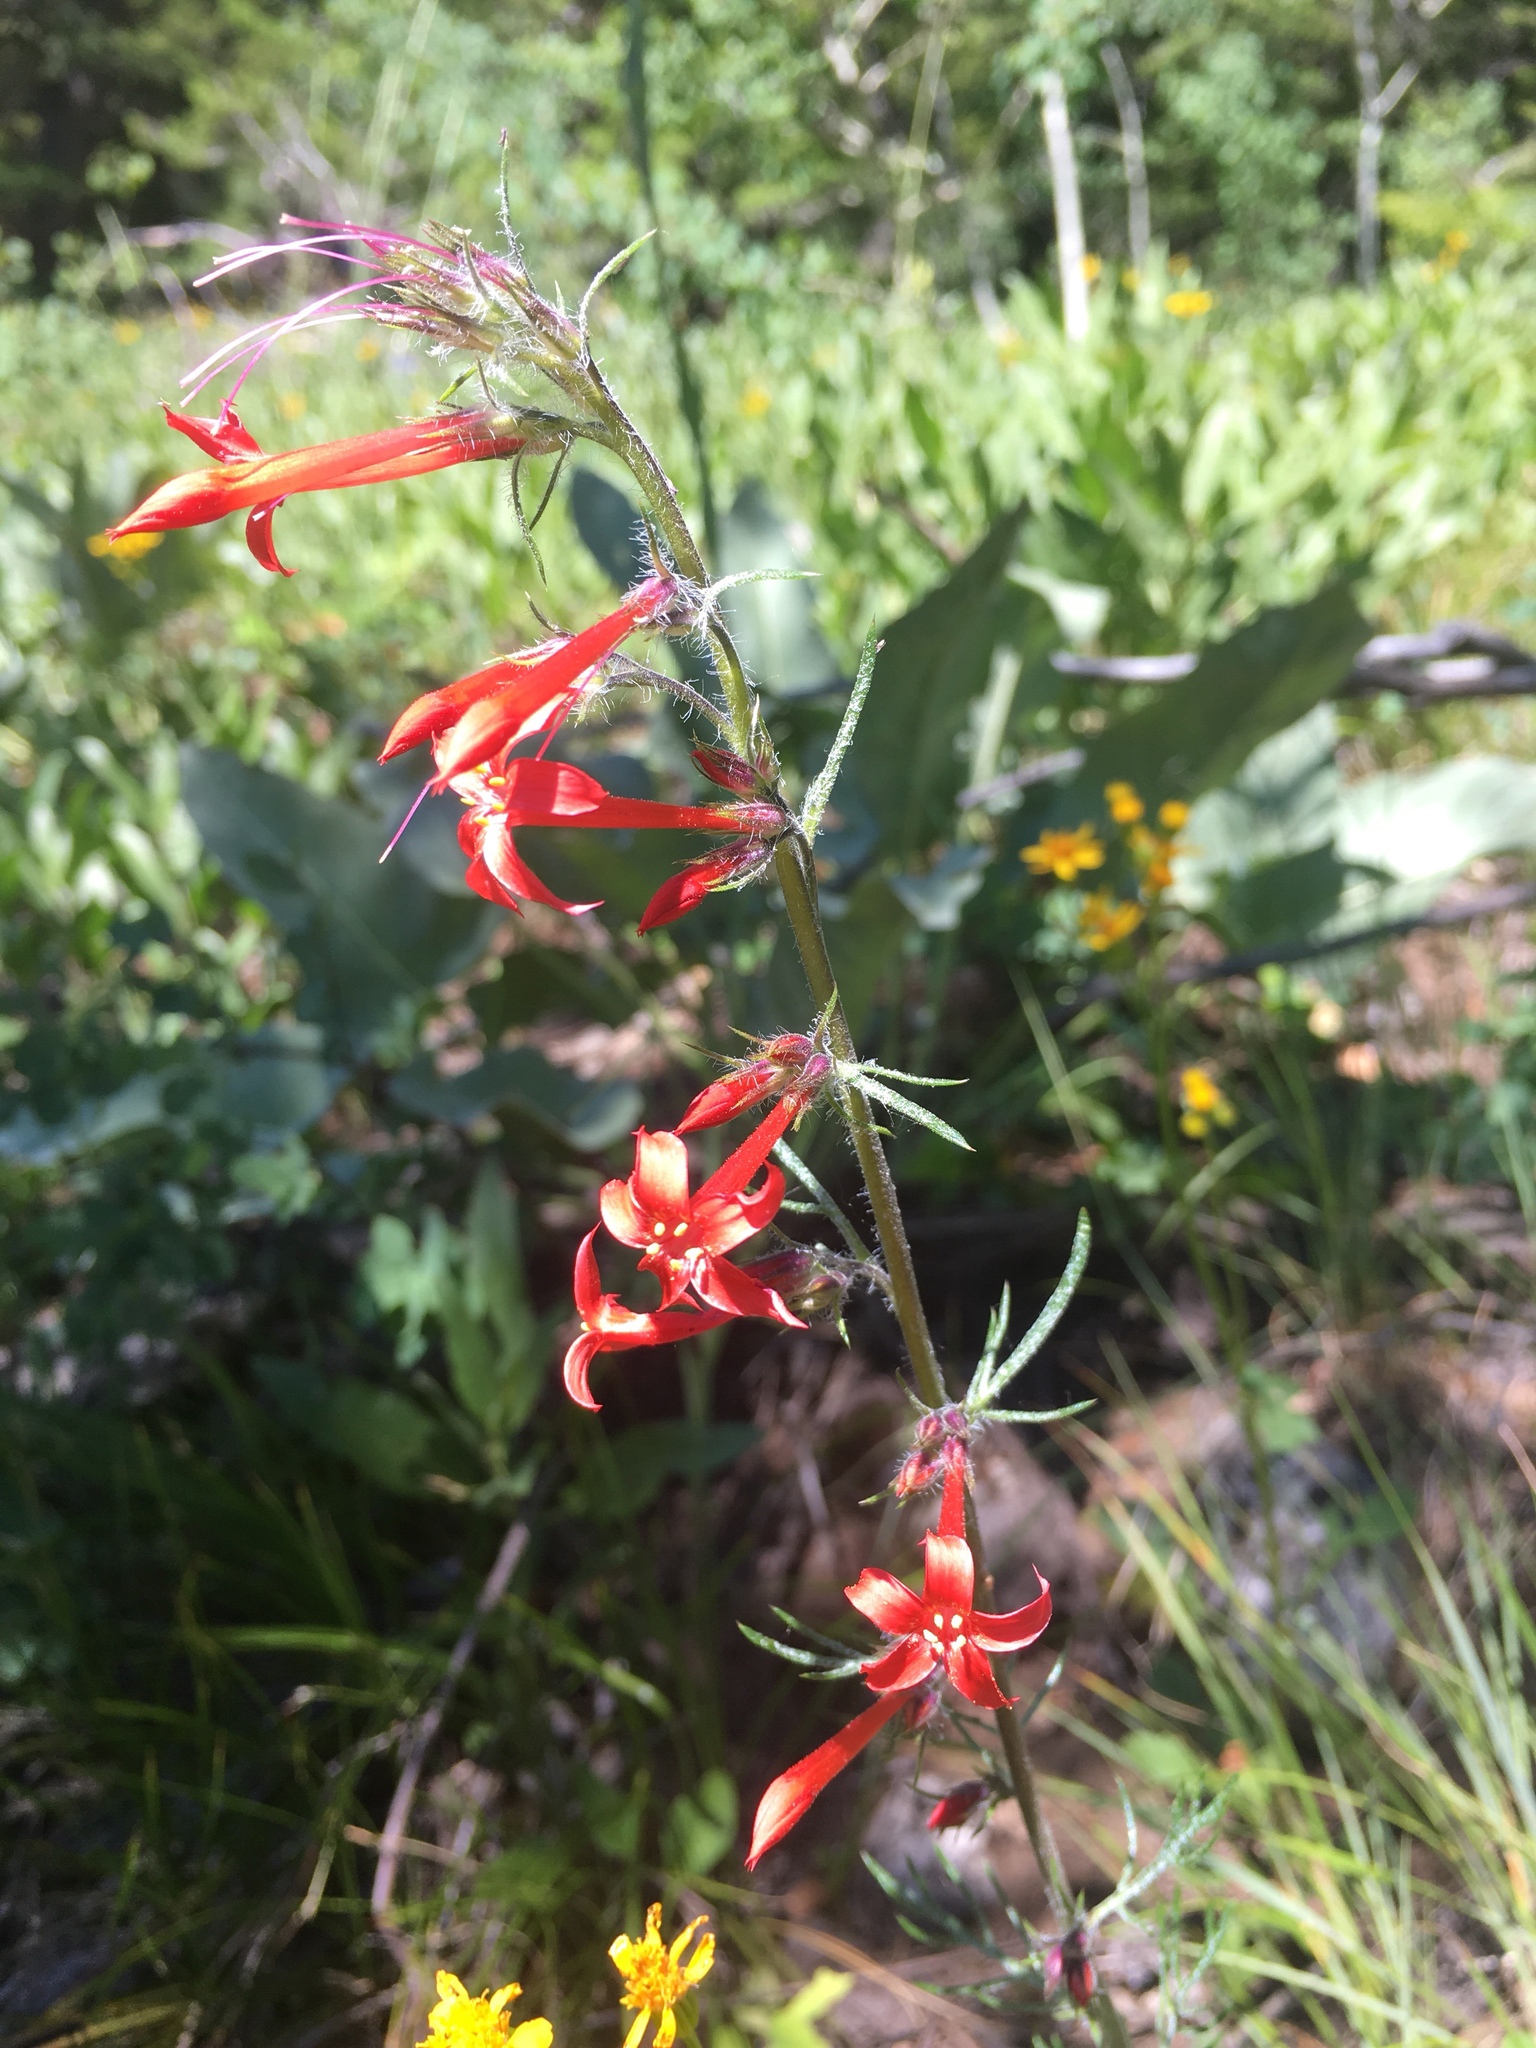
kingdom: Plantae
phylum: Tracheophyta
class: Magnoliopsida
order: Ericales
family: Polemoniaceae
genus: Ipomopsis
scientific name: Ipomopsis aggregata
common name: Scarlet gilia
